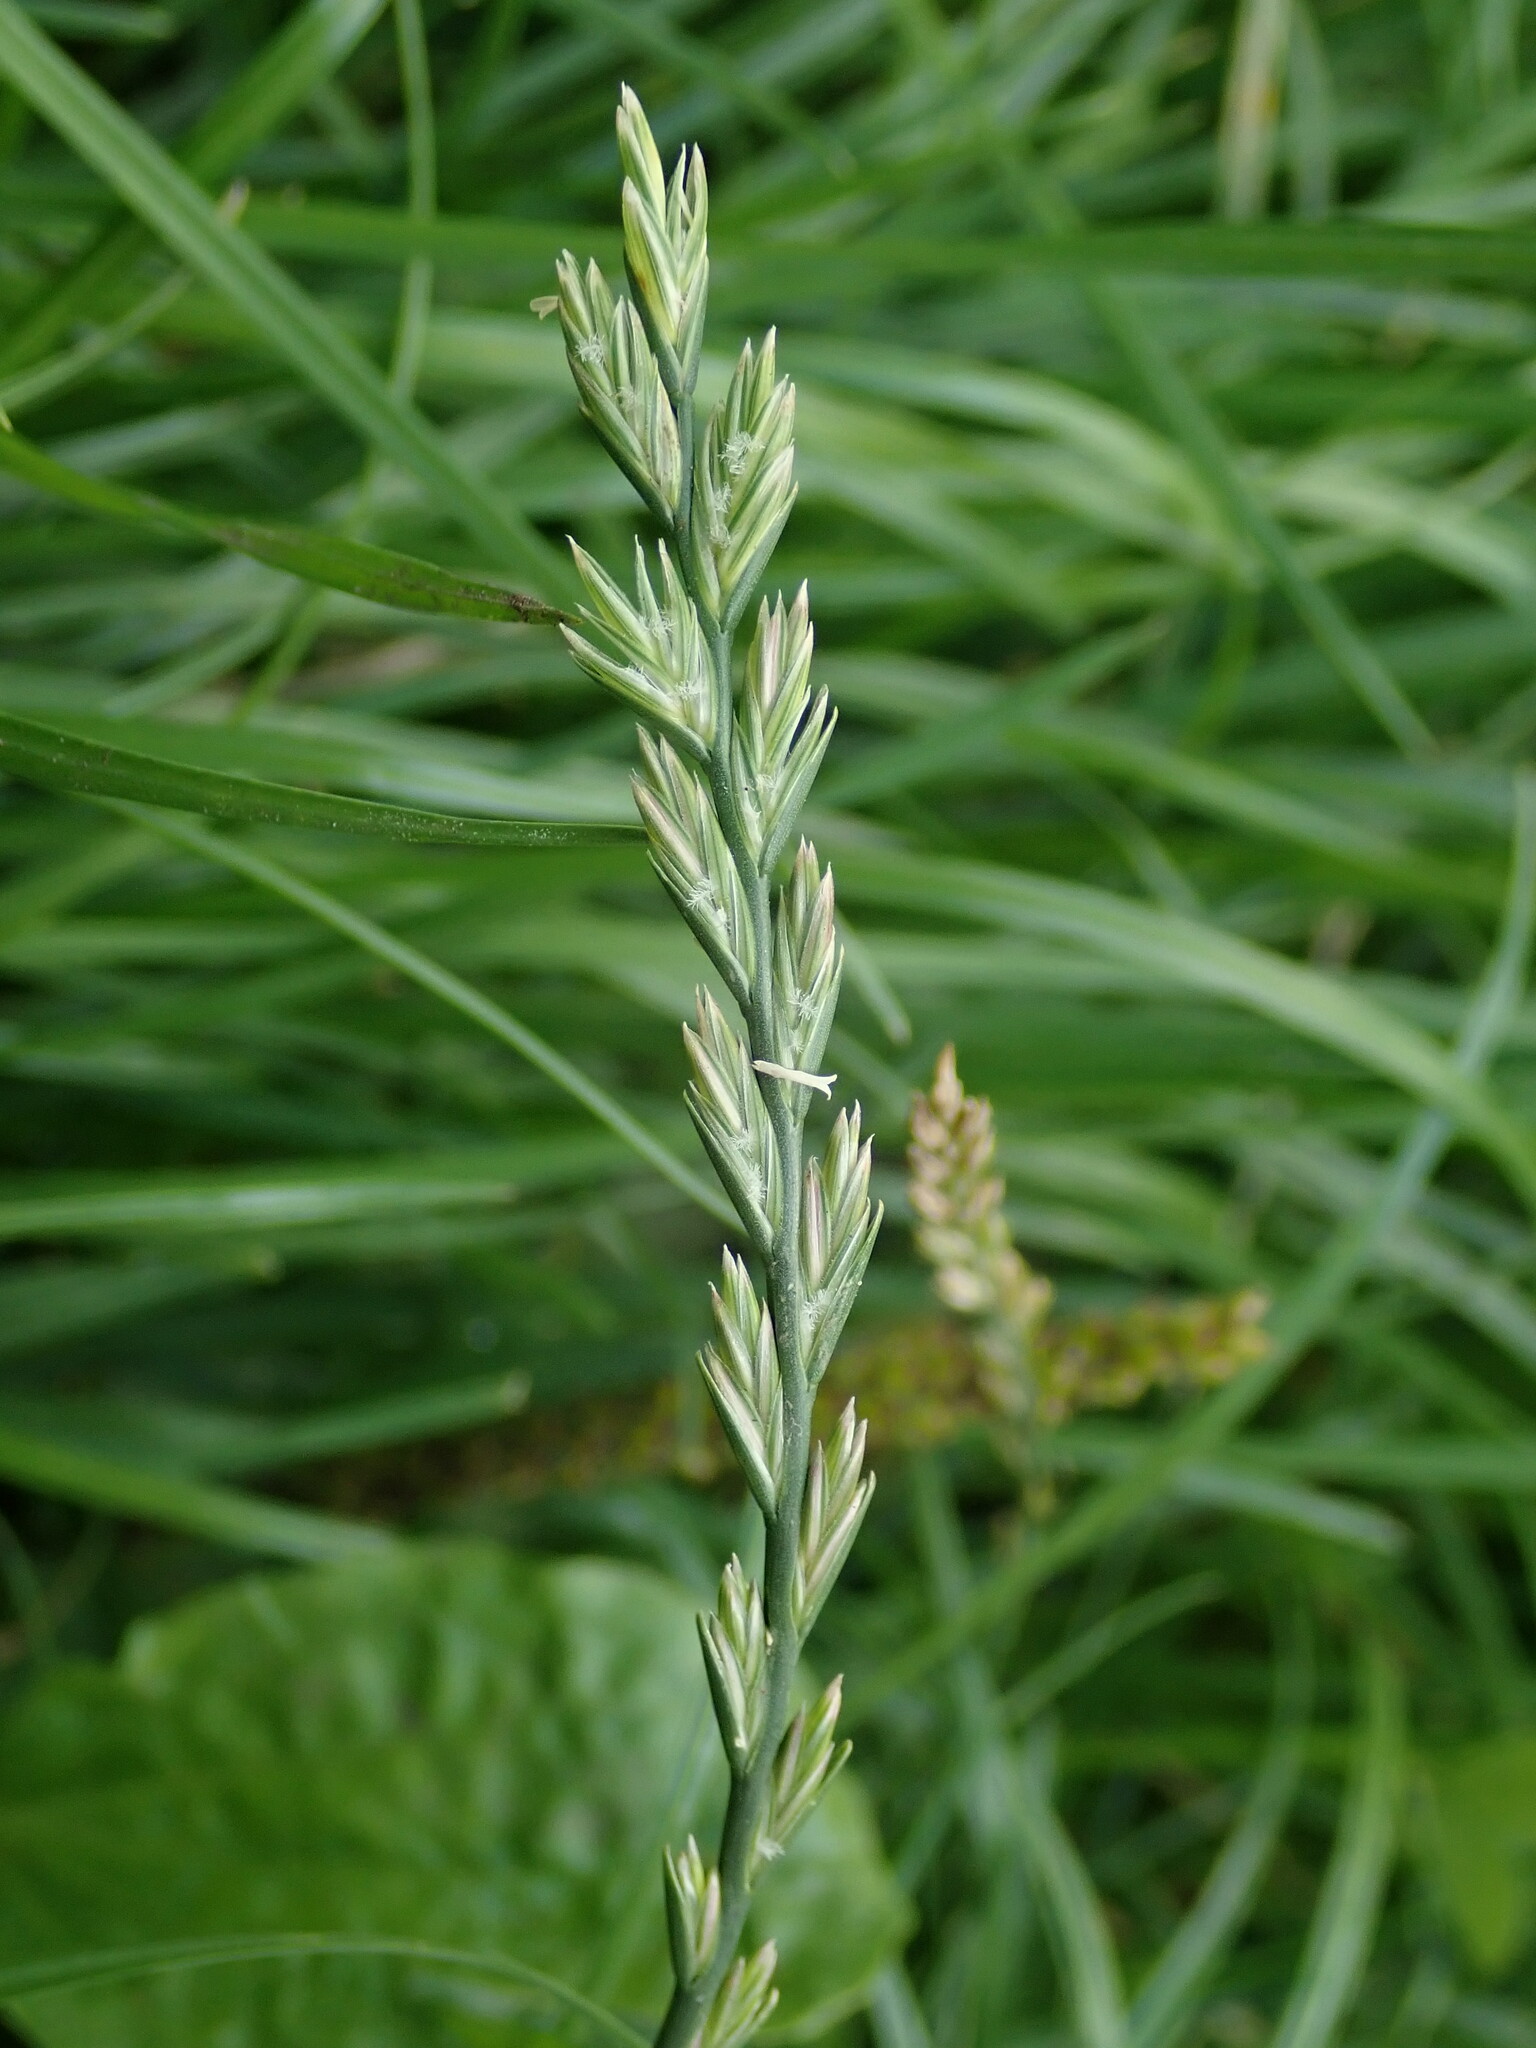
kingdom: Plantae
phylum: Tracheophyta
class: Liliopsida
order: Poales
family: Poaceae
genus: Lolium
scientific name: Lolium perenne
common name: Perennial ryegrass
